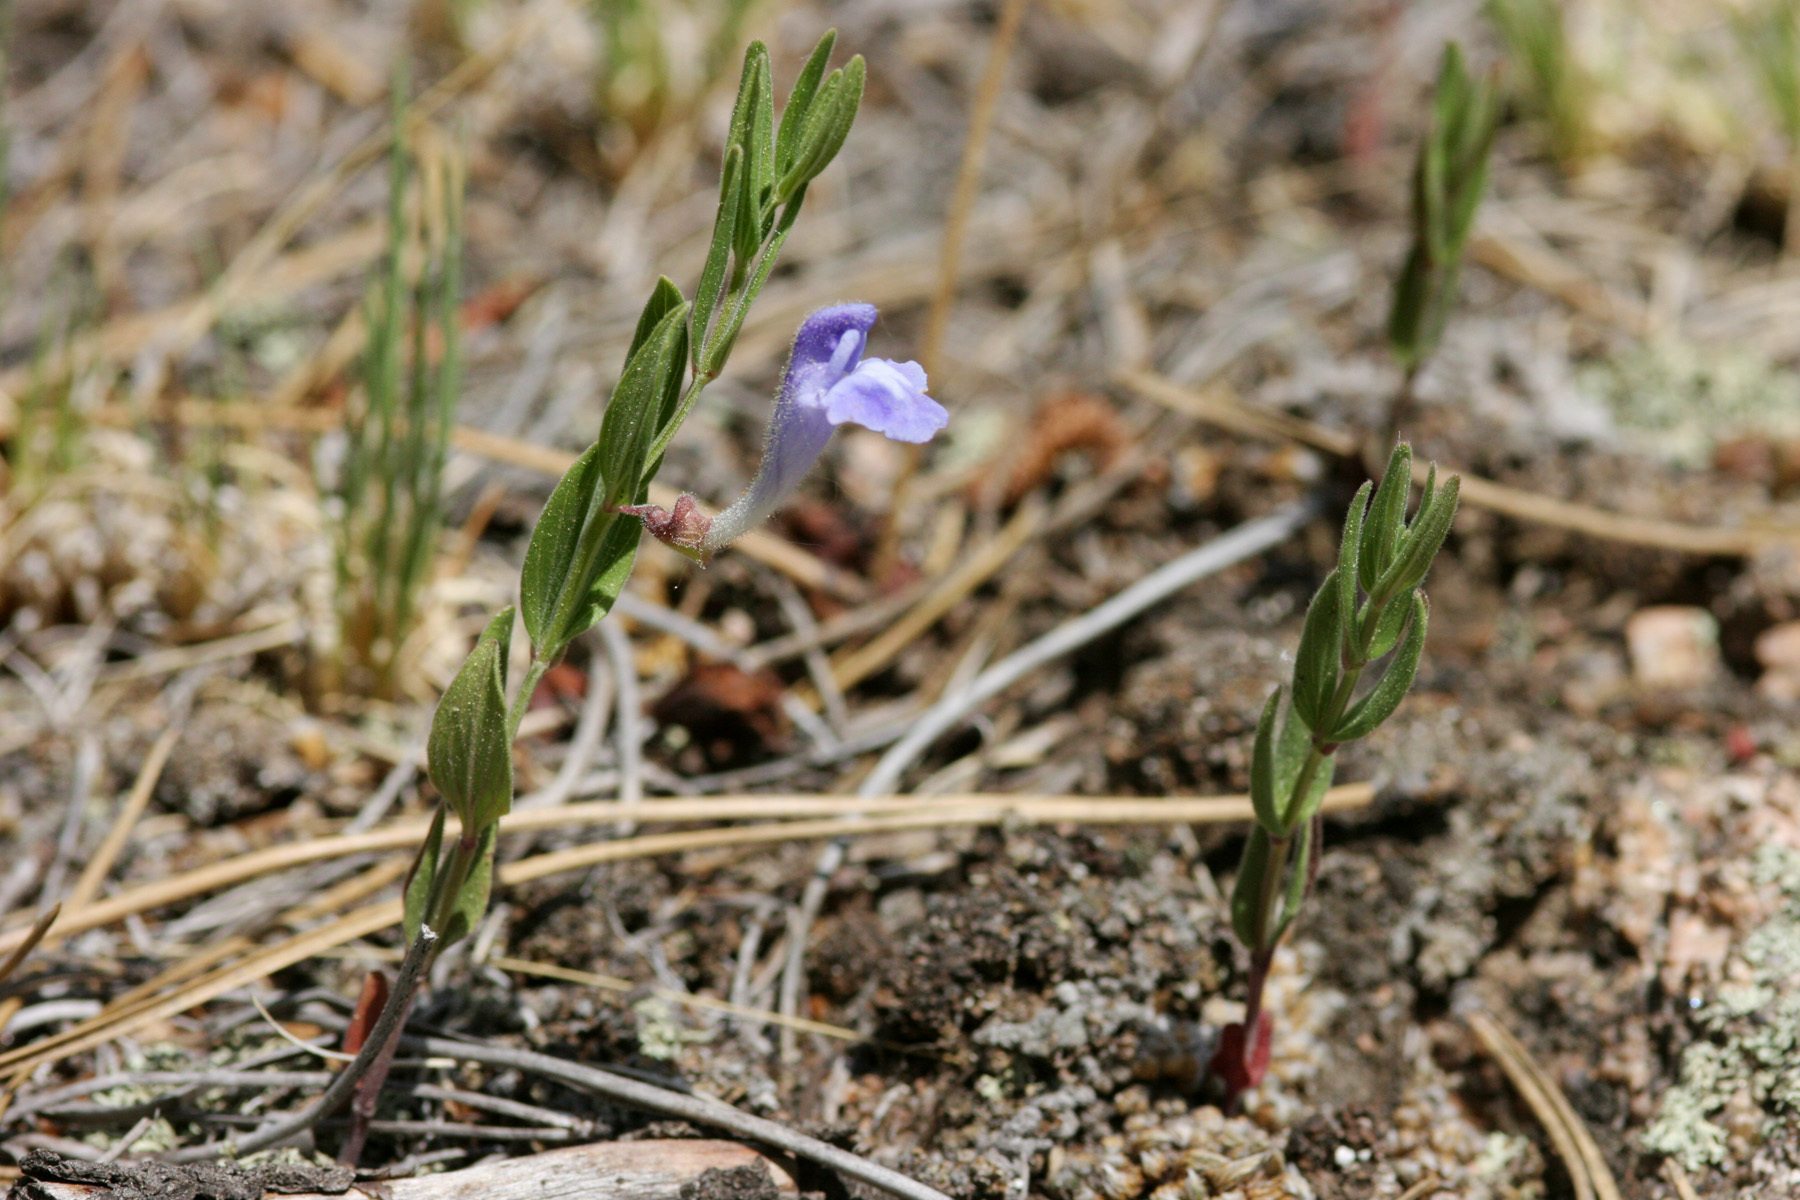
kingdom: Plantae
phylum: Tracheophyta
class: Magnoliopsida
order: Lamiales
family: Lamiaceae
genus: Scutellaria
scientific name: Scutellaria brittonii
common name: Britton's skullcap
